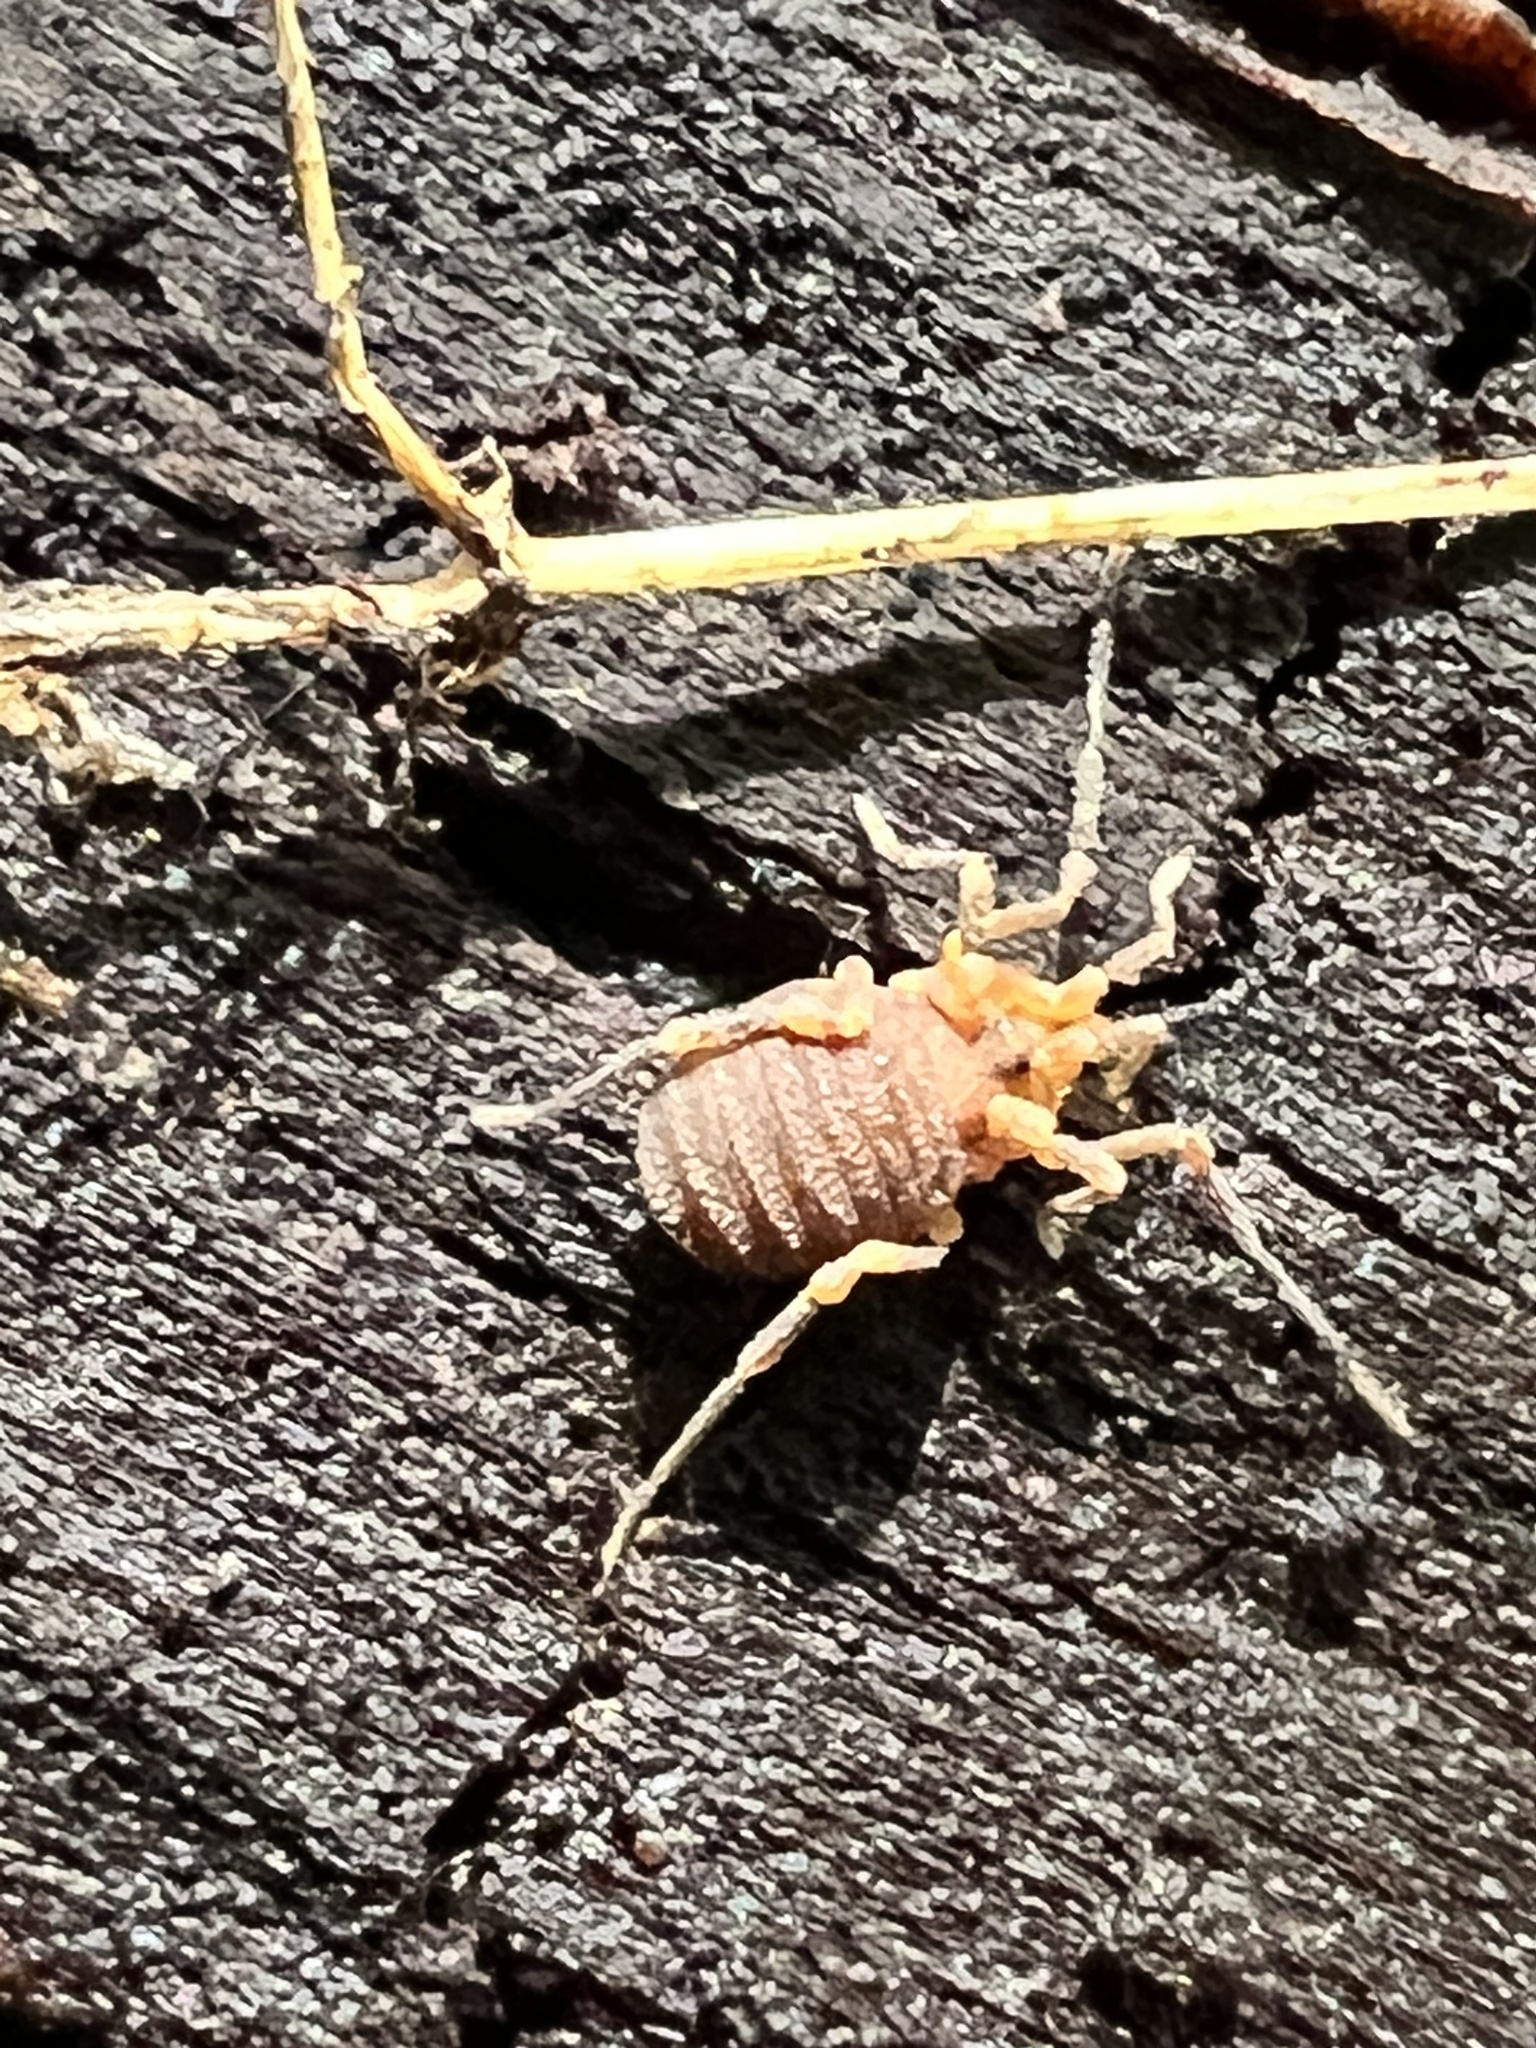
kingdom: Animalia
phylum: Arthropoda
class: Arachnida
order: Opiliones
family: Paranonychidae
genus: Paranonychus
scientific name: Paranonychus brunneus
